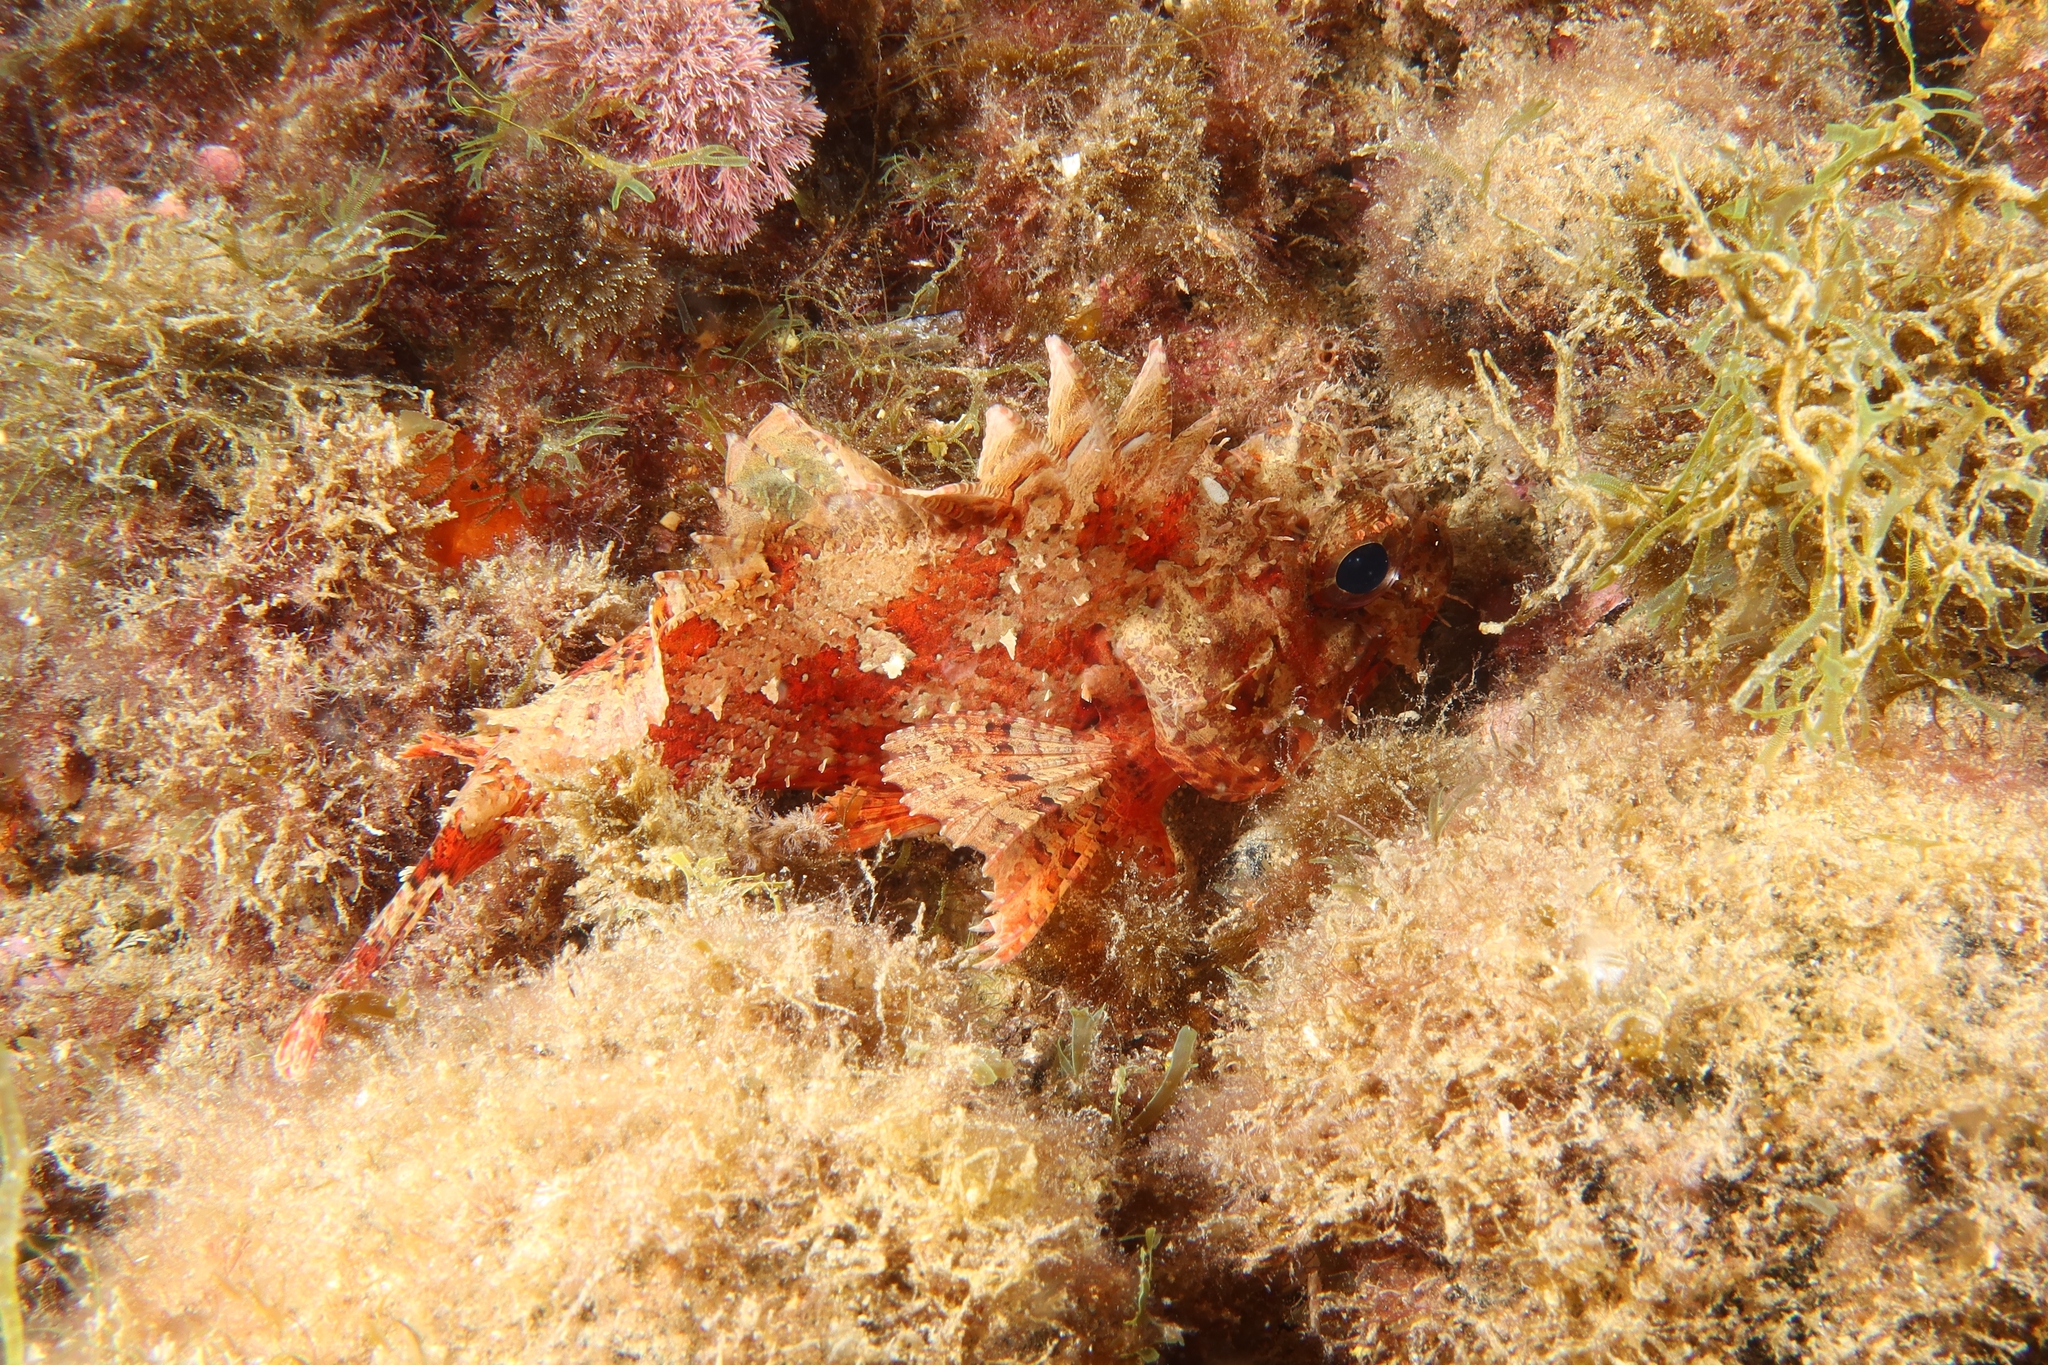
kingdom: Animalia
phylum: Chordata
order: Scorpaeniformes
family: Scorpaenidae
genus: Scorpaena
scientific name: Scorpaena notata
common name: Small red scorpionfish
